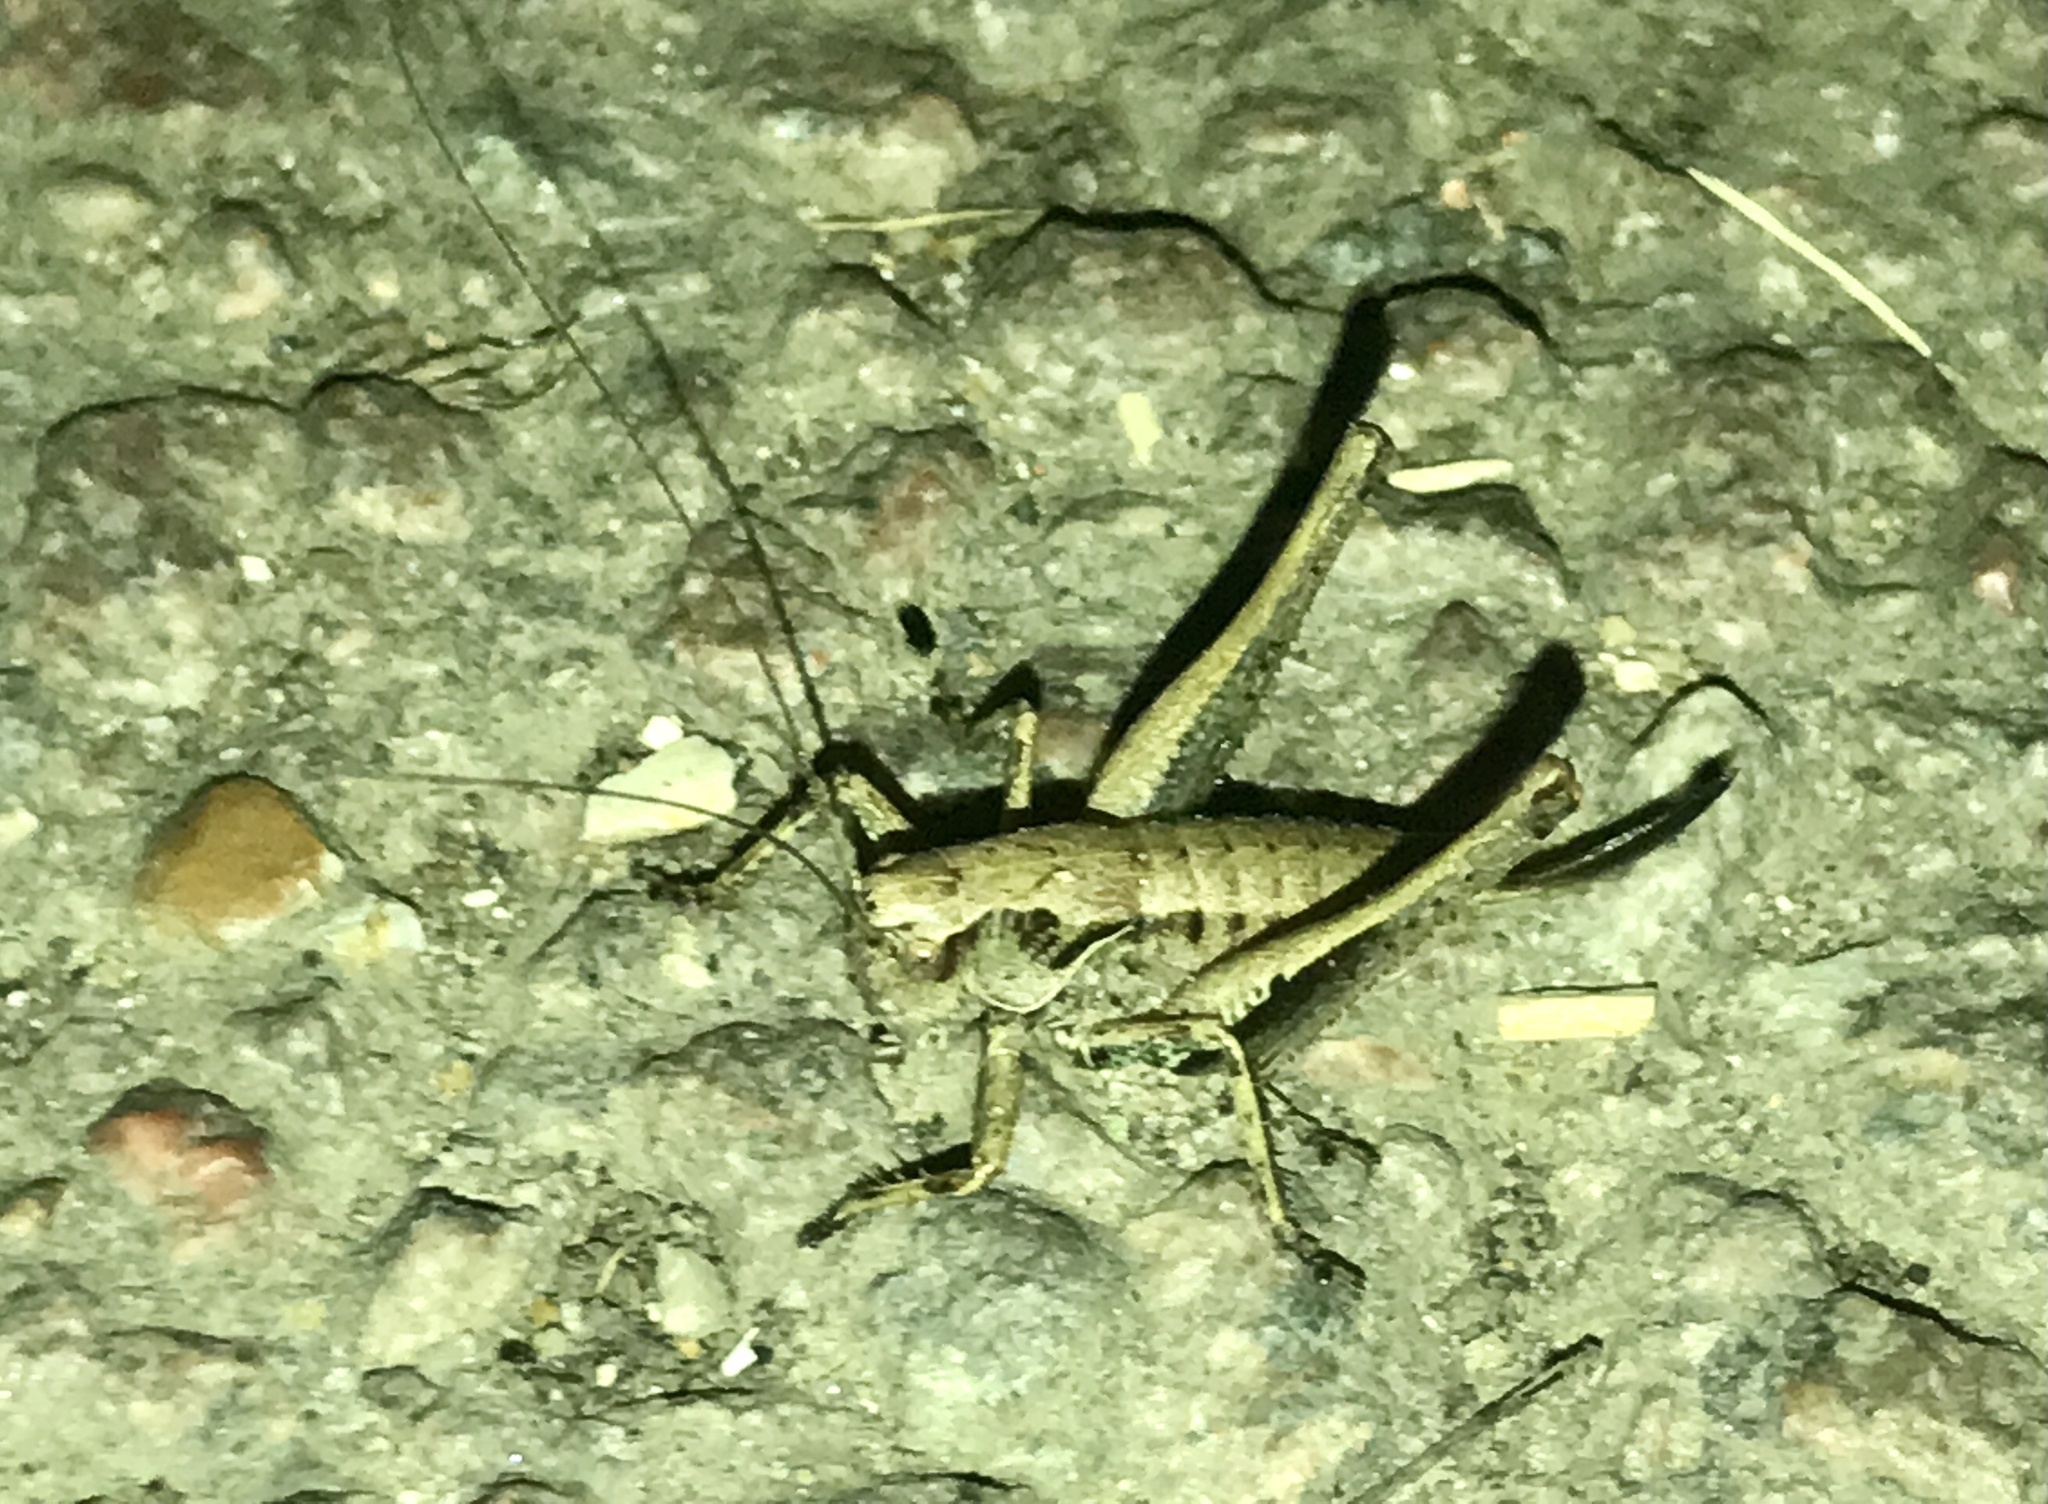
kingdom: Animalia
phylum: Arthropoda
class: Insecta
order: Orthoptera
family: Tettigoniidae
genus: Pholidoptera
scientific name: Pholidoptera griseoaptera
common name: Dark bush-cricket
